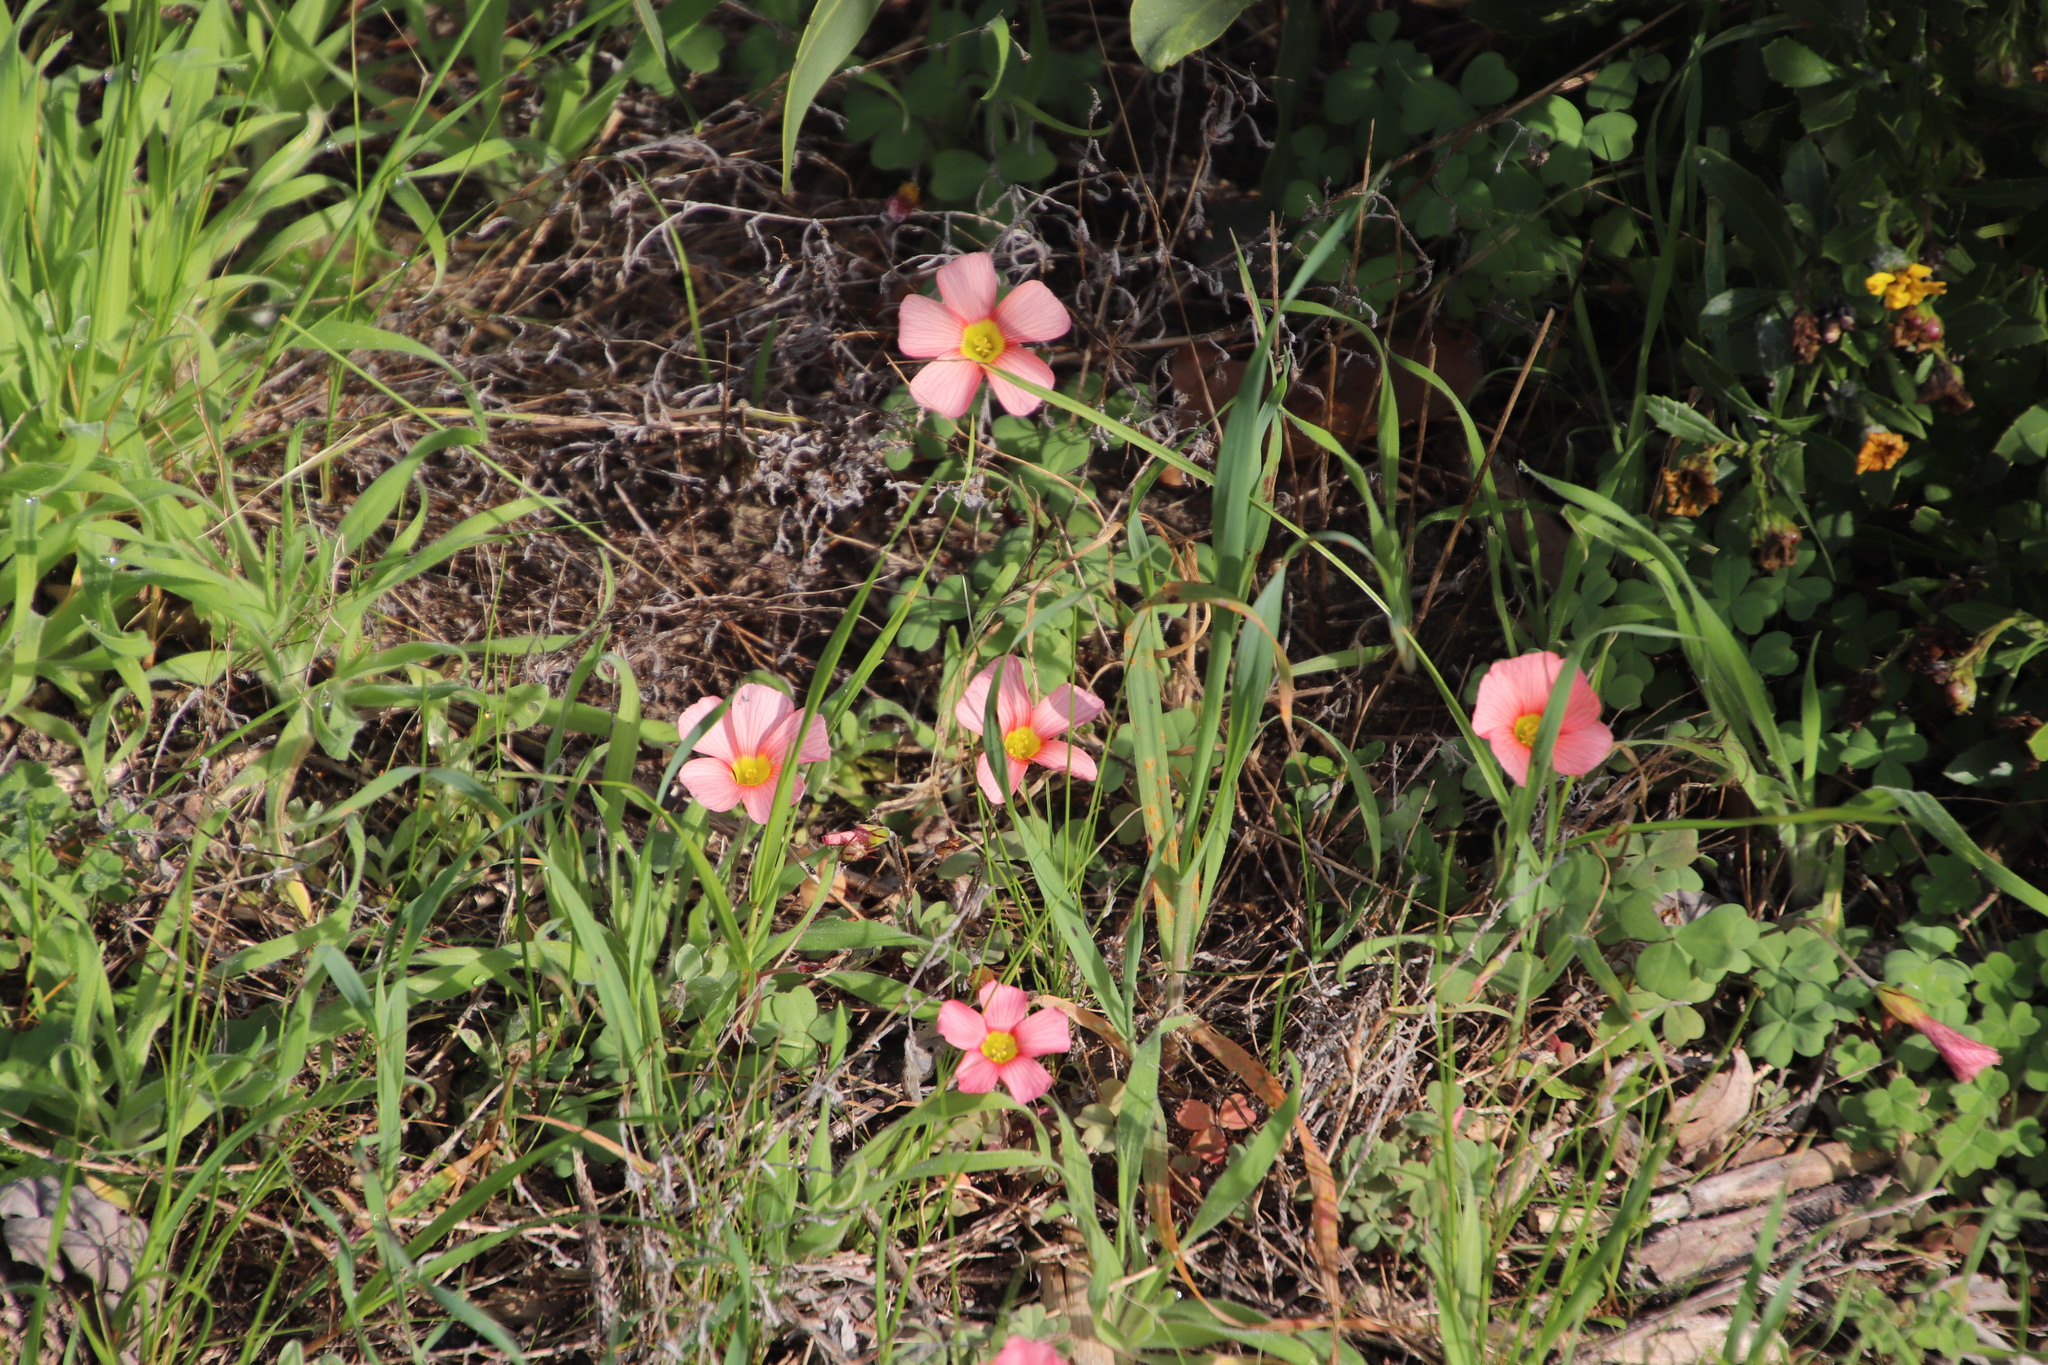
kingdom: Plantae
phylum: Tracheophyta
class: Magnoliopsida
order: Oxalidales
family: Oxalidaceae
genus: Oxalis
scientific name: Oxalis obtusa
